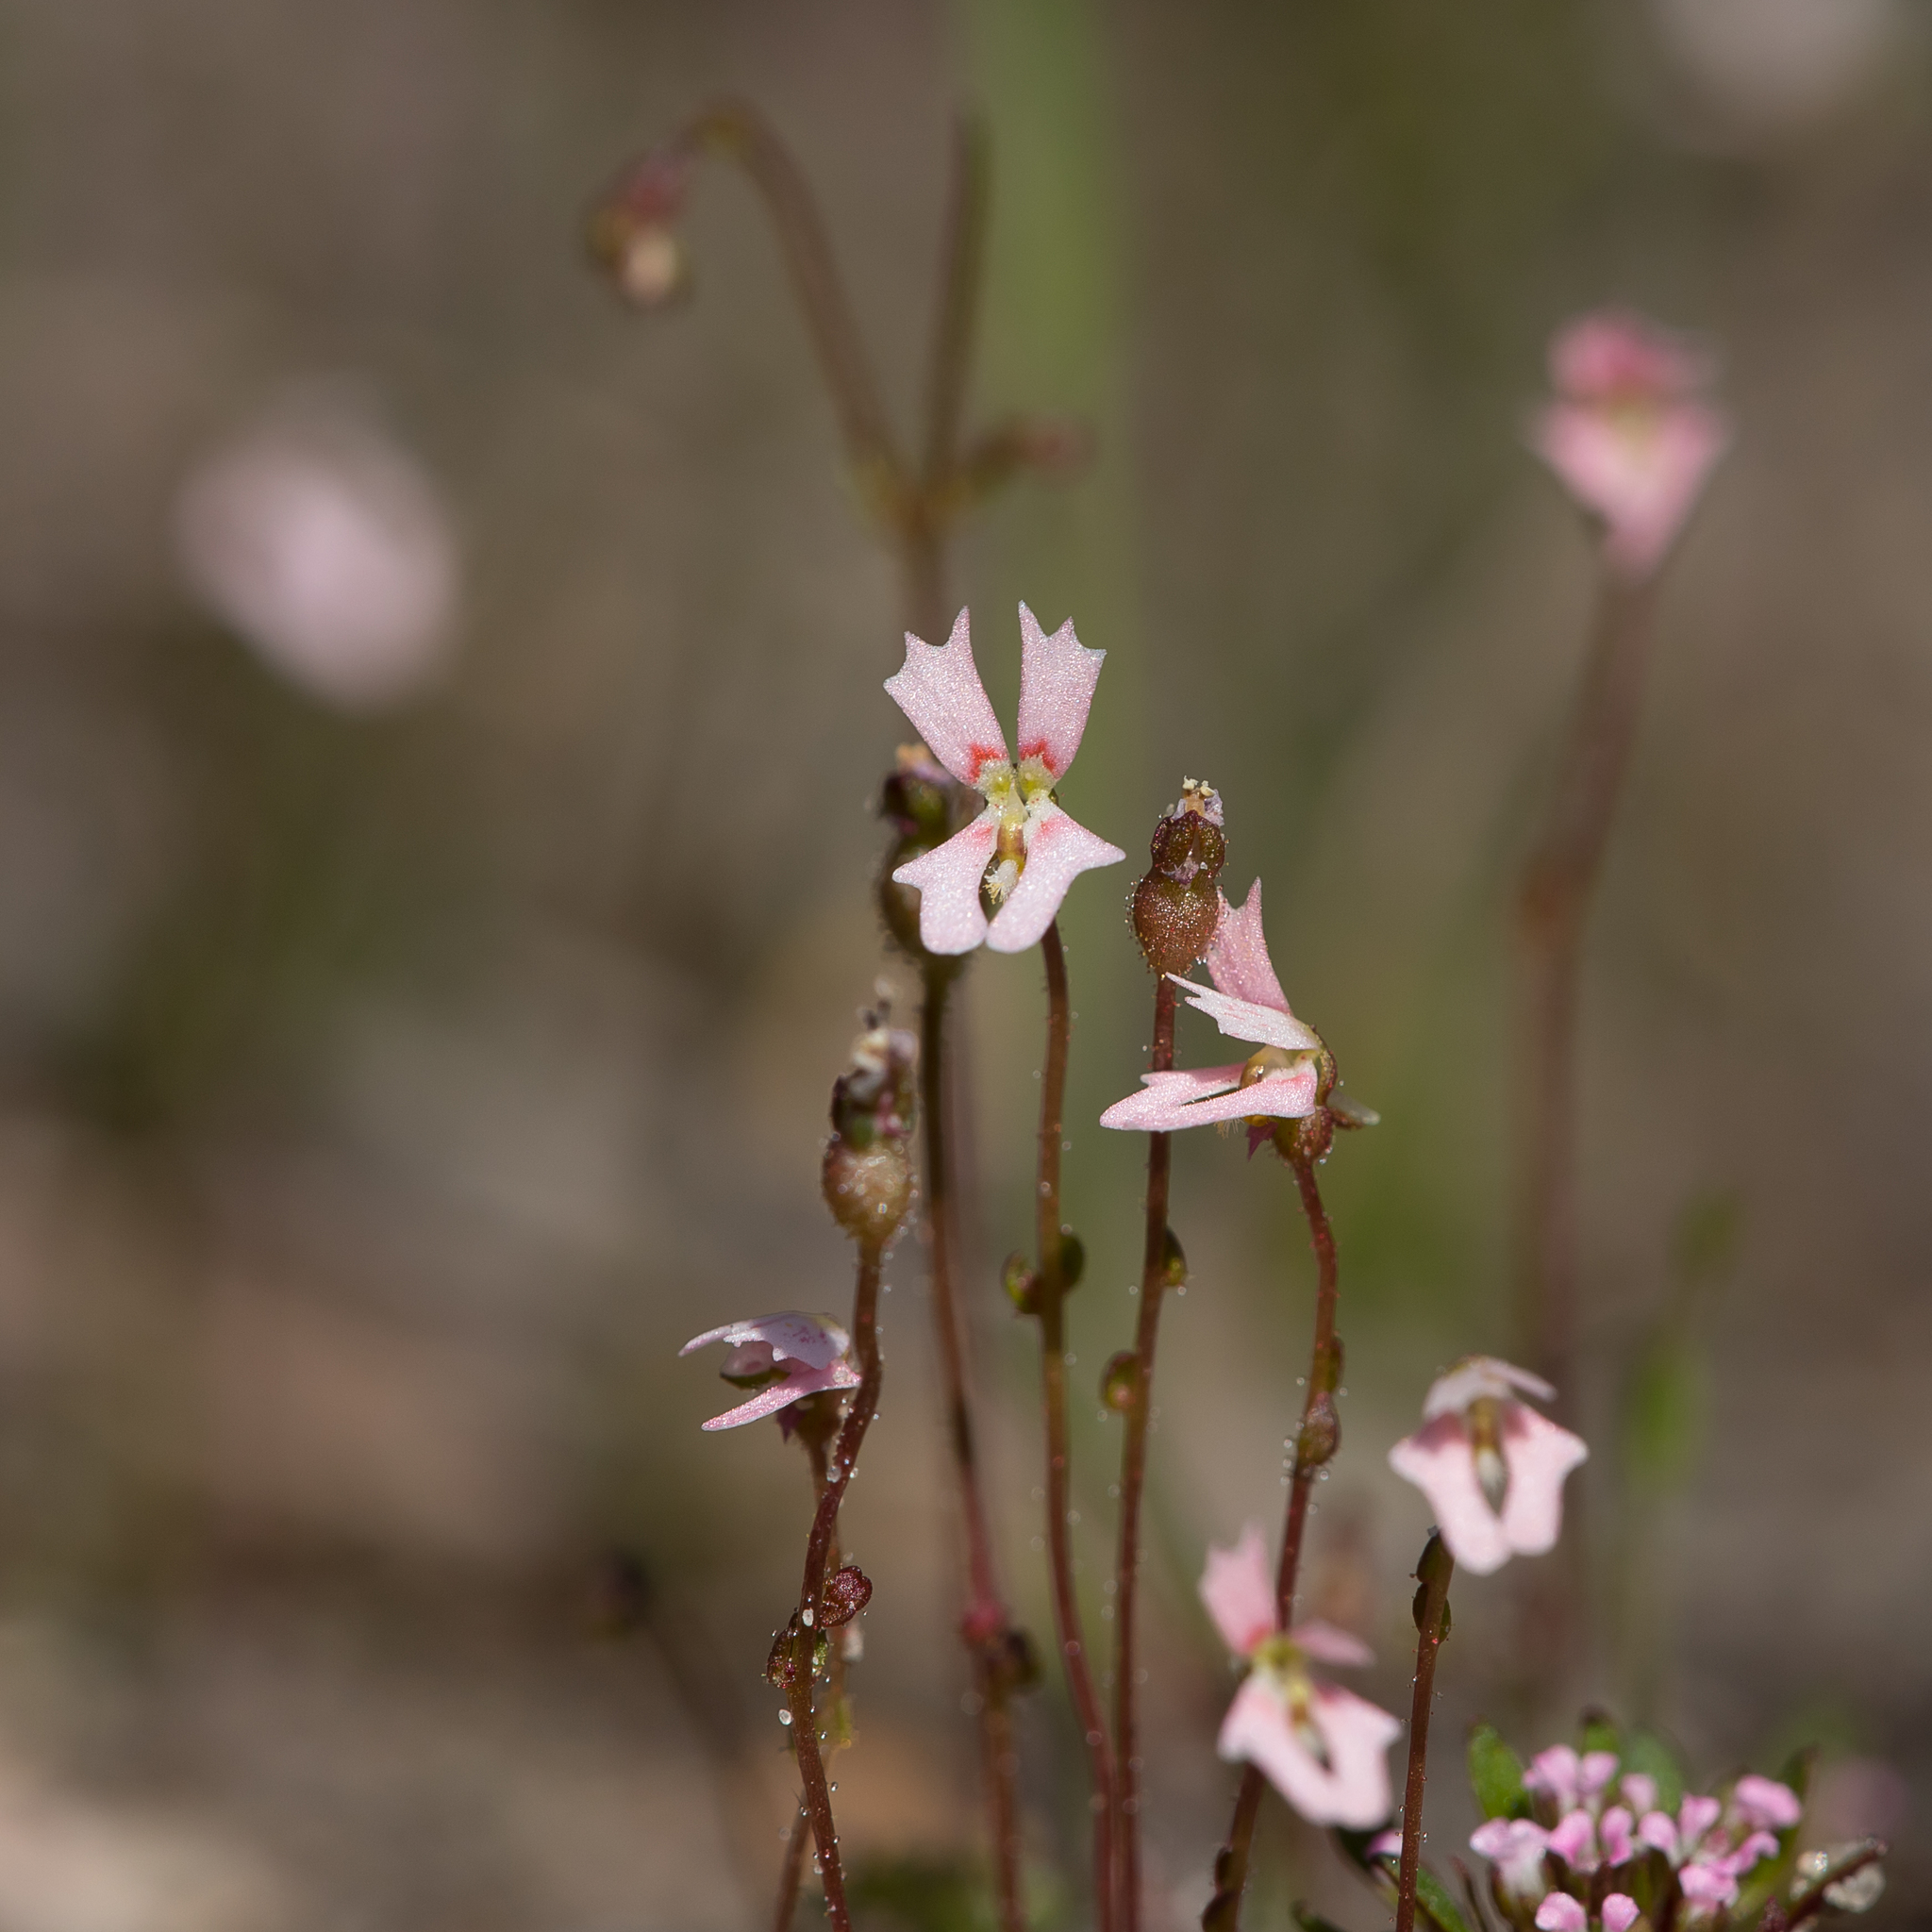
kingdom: Plantae
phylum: Tracheophyta
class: Magnoliopsida
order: Asterales
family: Stylidiaceae
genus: Stylidium
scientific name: Stylidium calcaratum
